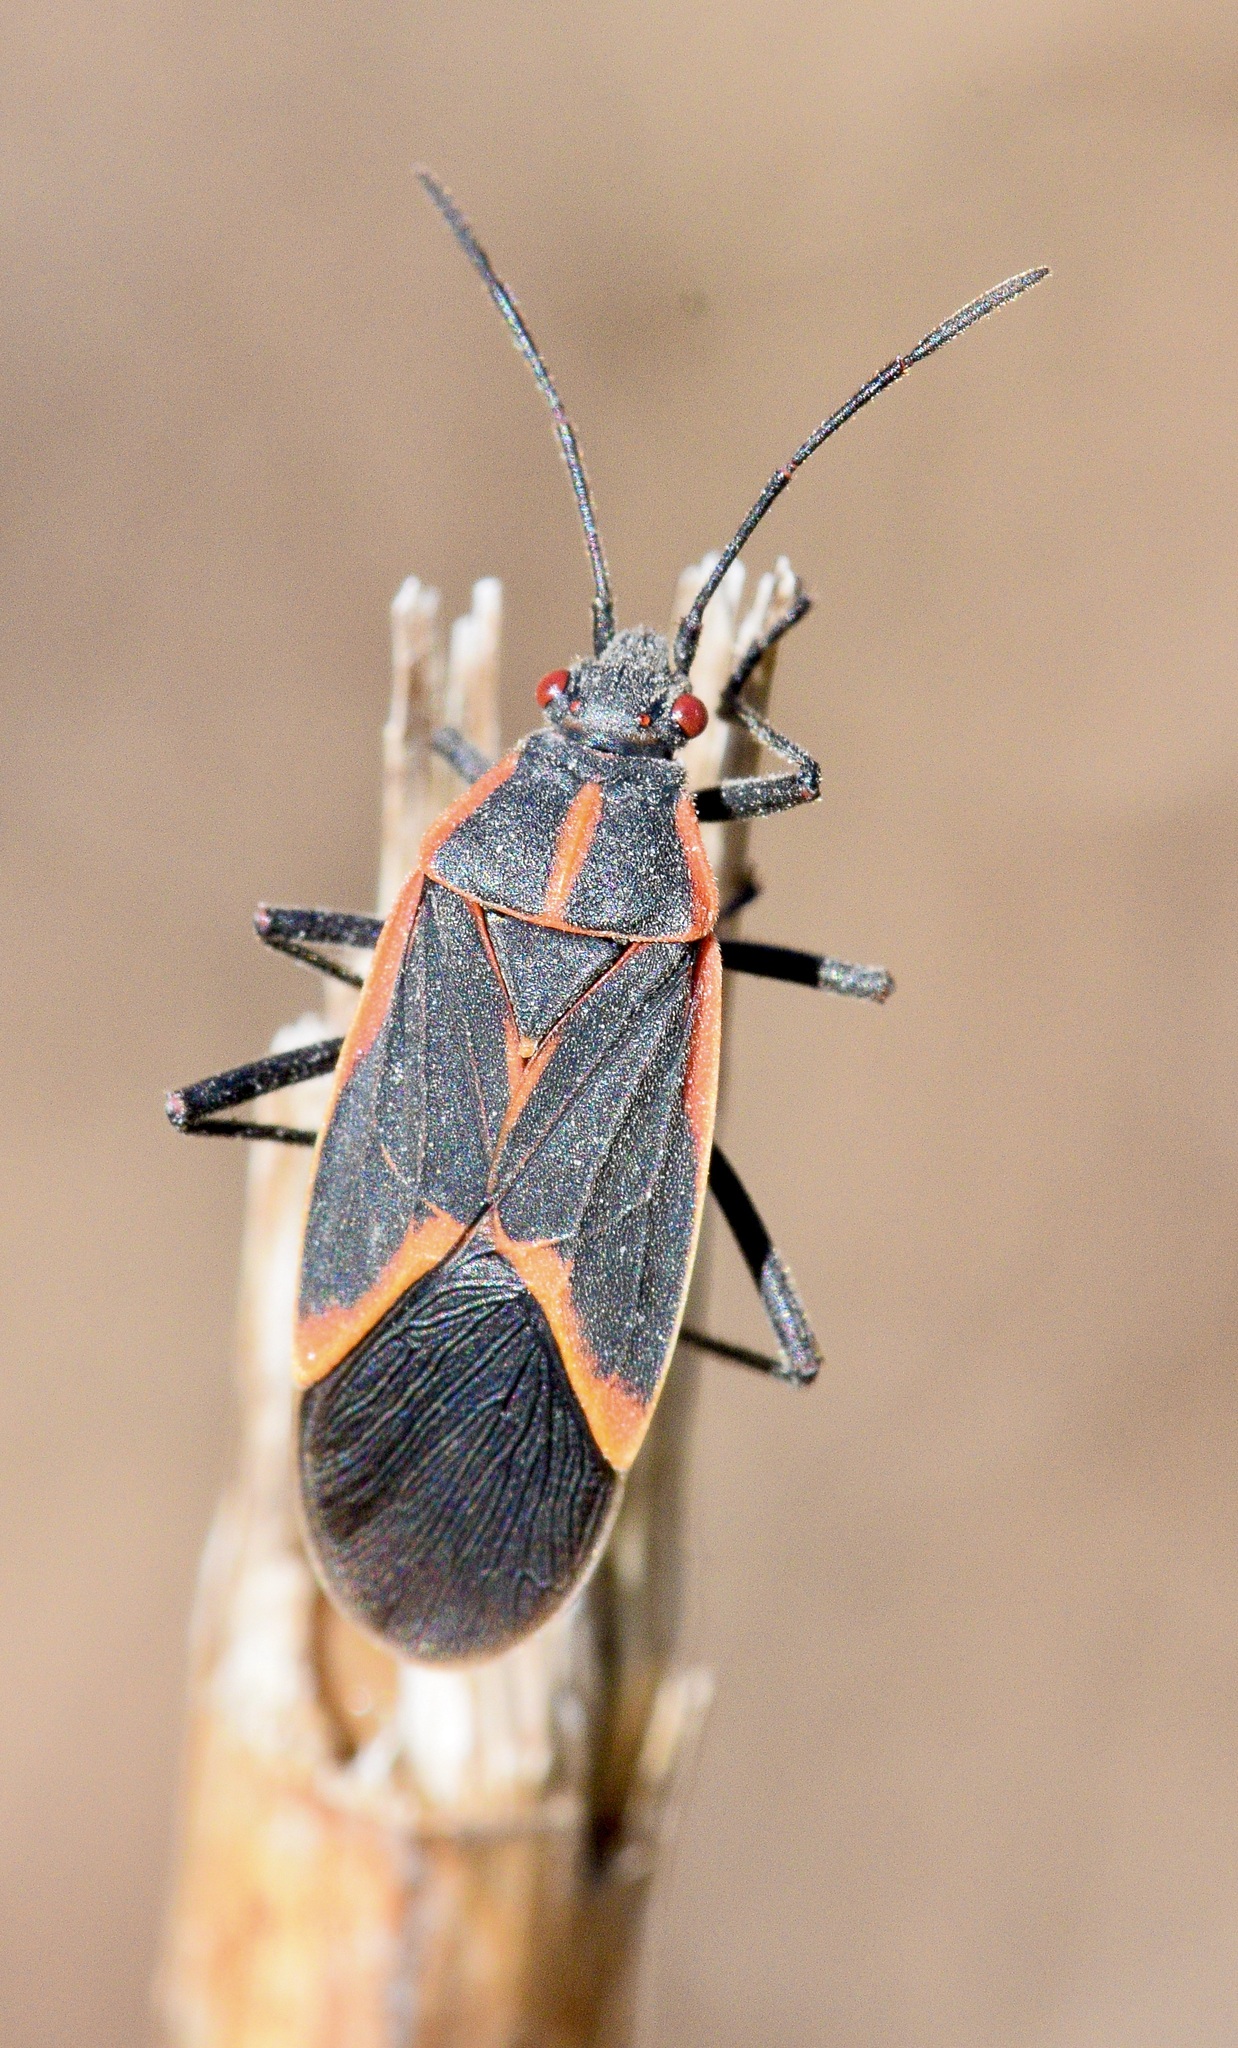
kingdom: Animalia
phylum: Arthropoda
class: Insecta
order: Hemiptera
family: Rhopalidae
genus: Boisea
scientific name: Boisea trivittata
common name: Boxelder bug
